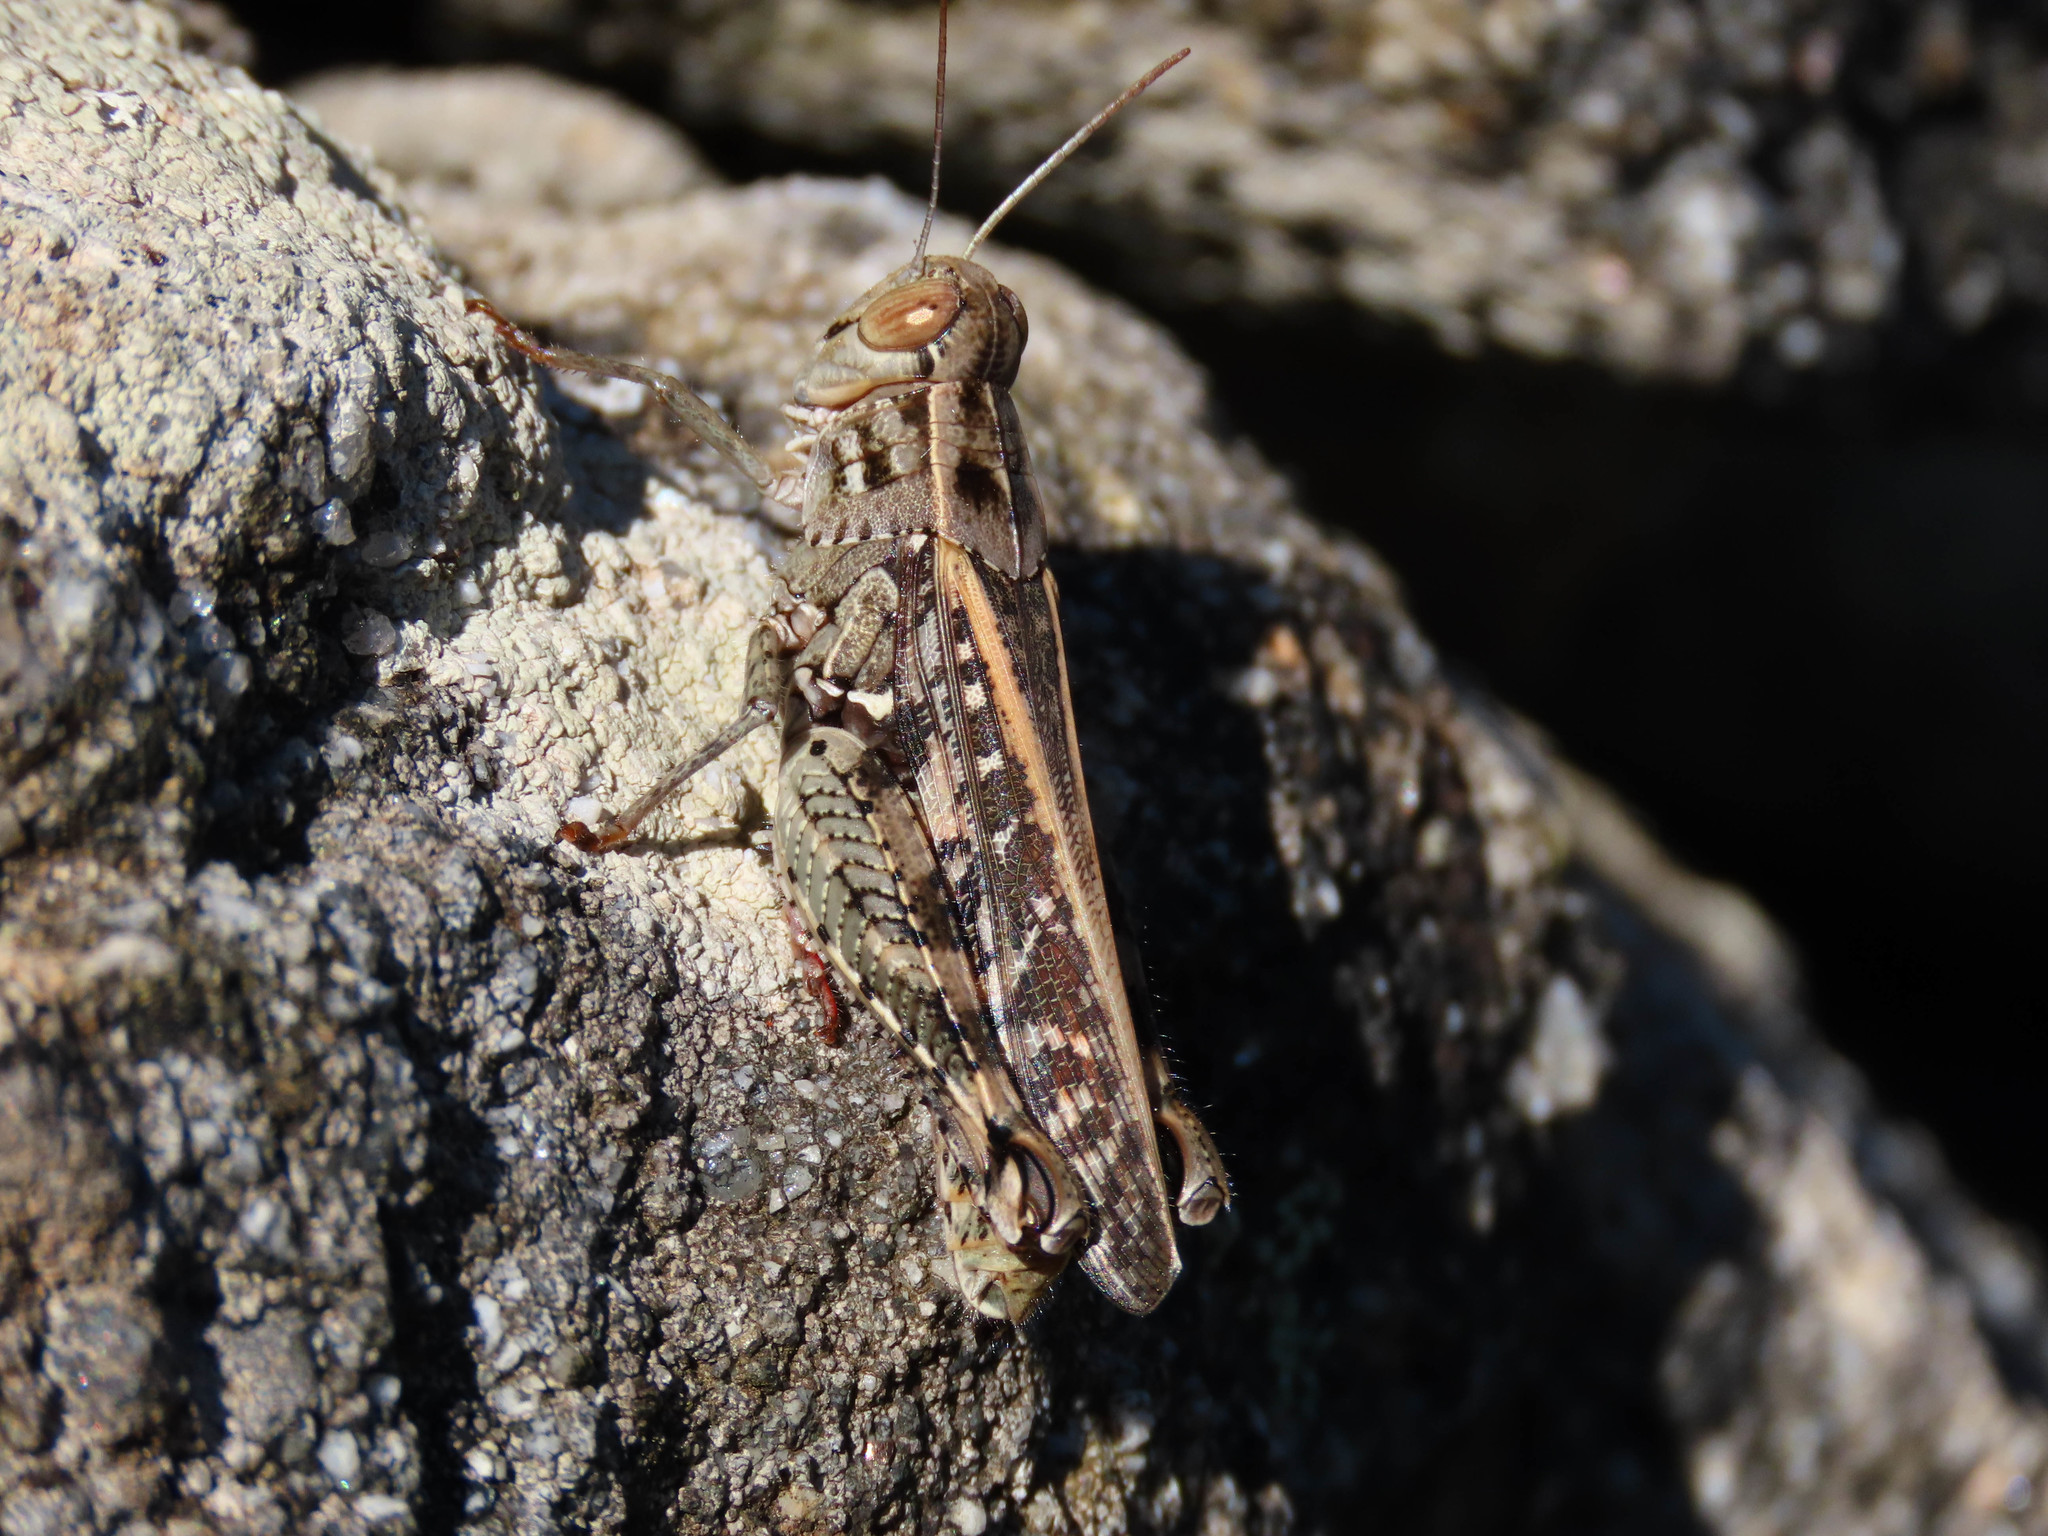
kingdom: Animalia
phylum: Arthropoda
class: Insecta
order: Orthoptera
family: Acrididae
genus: Calliptamus
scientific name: Calliptamus barbarus
